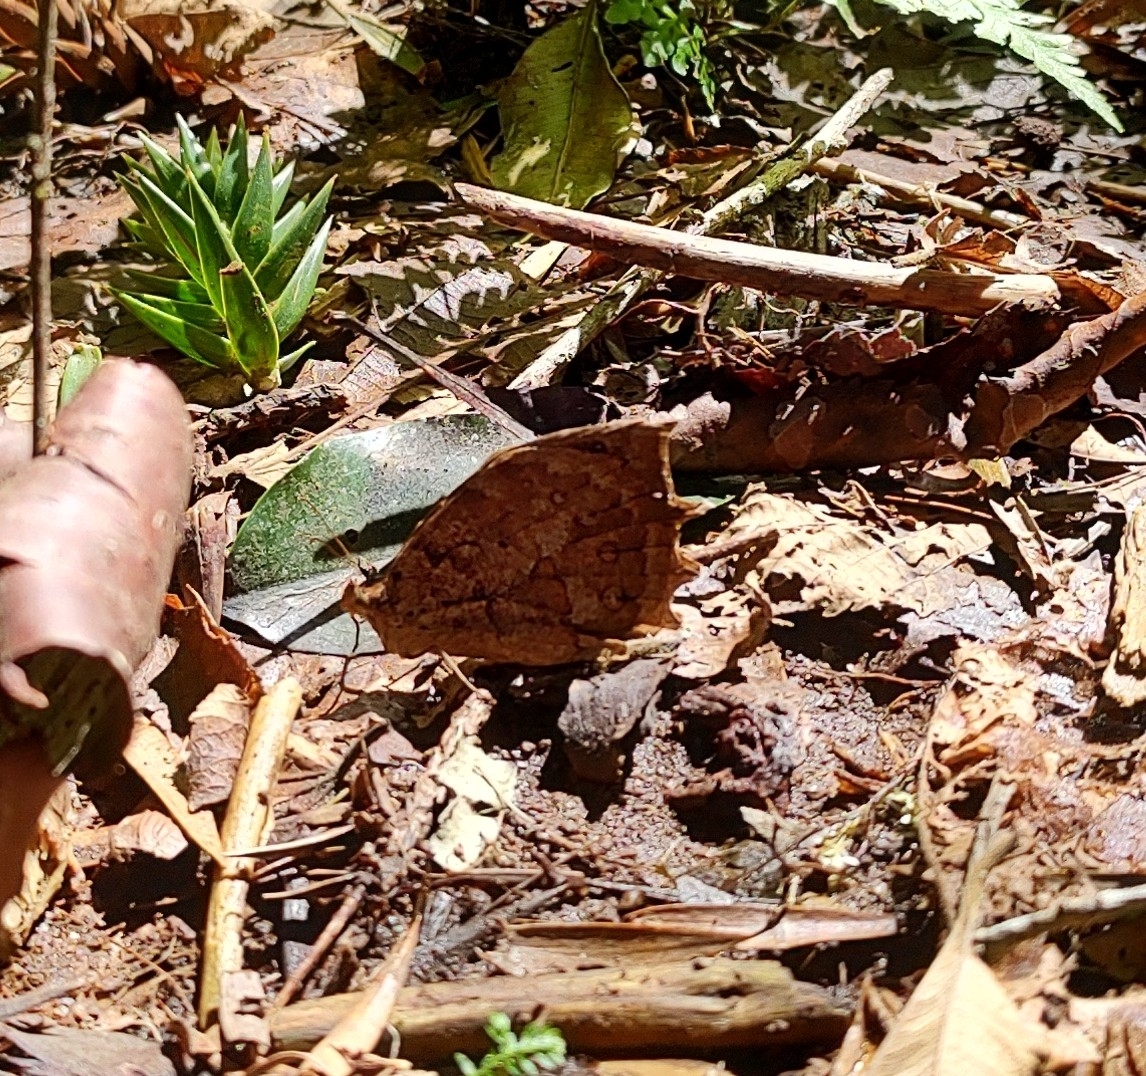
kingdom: Animalia
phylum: Arthropoda
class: Insecta
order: Lepidoptera
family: Nymphalidae
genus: Taguaiba
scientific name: Taguaiba
